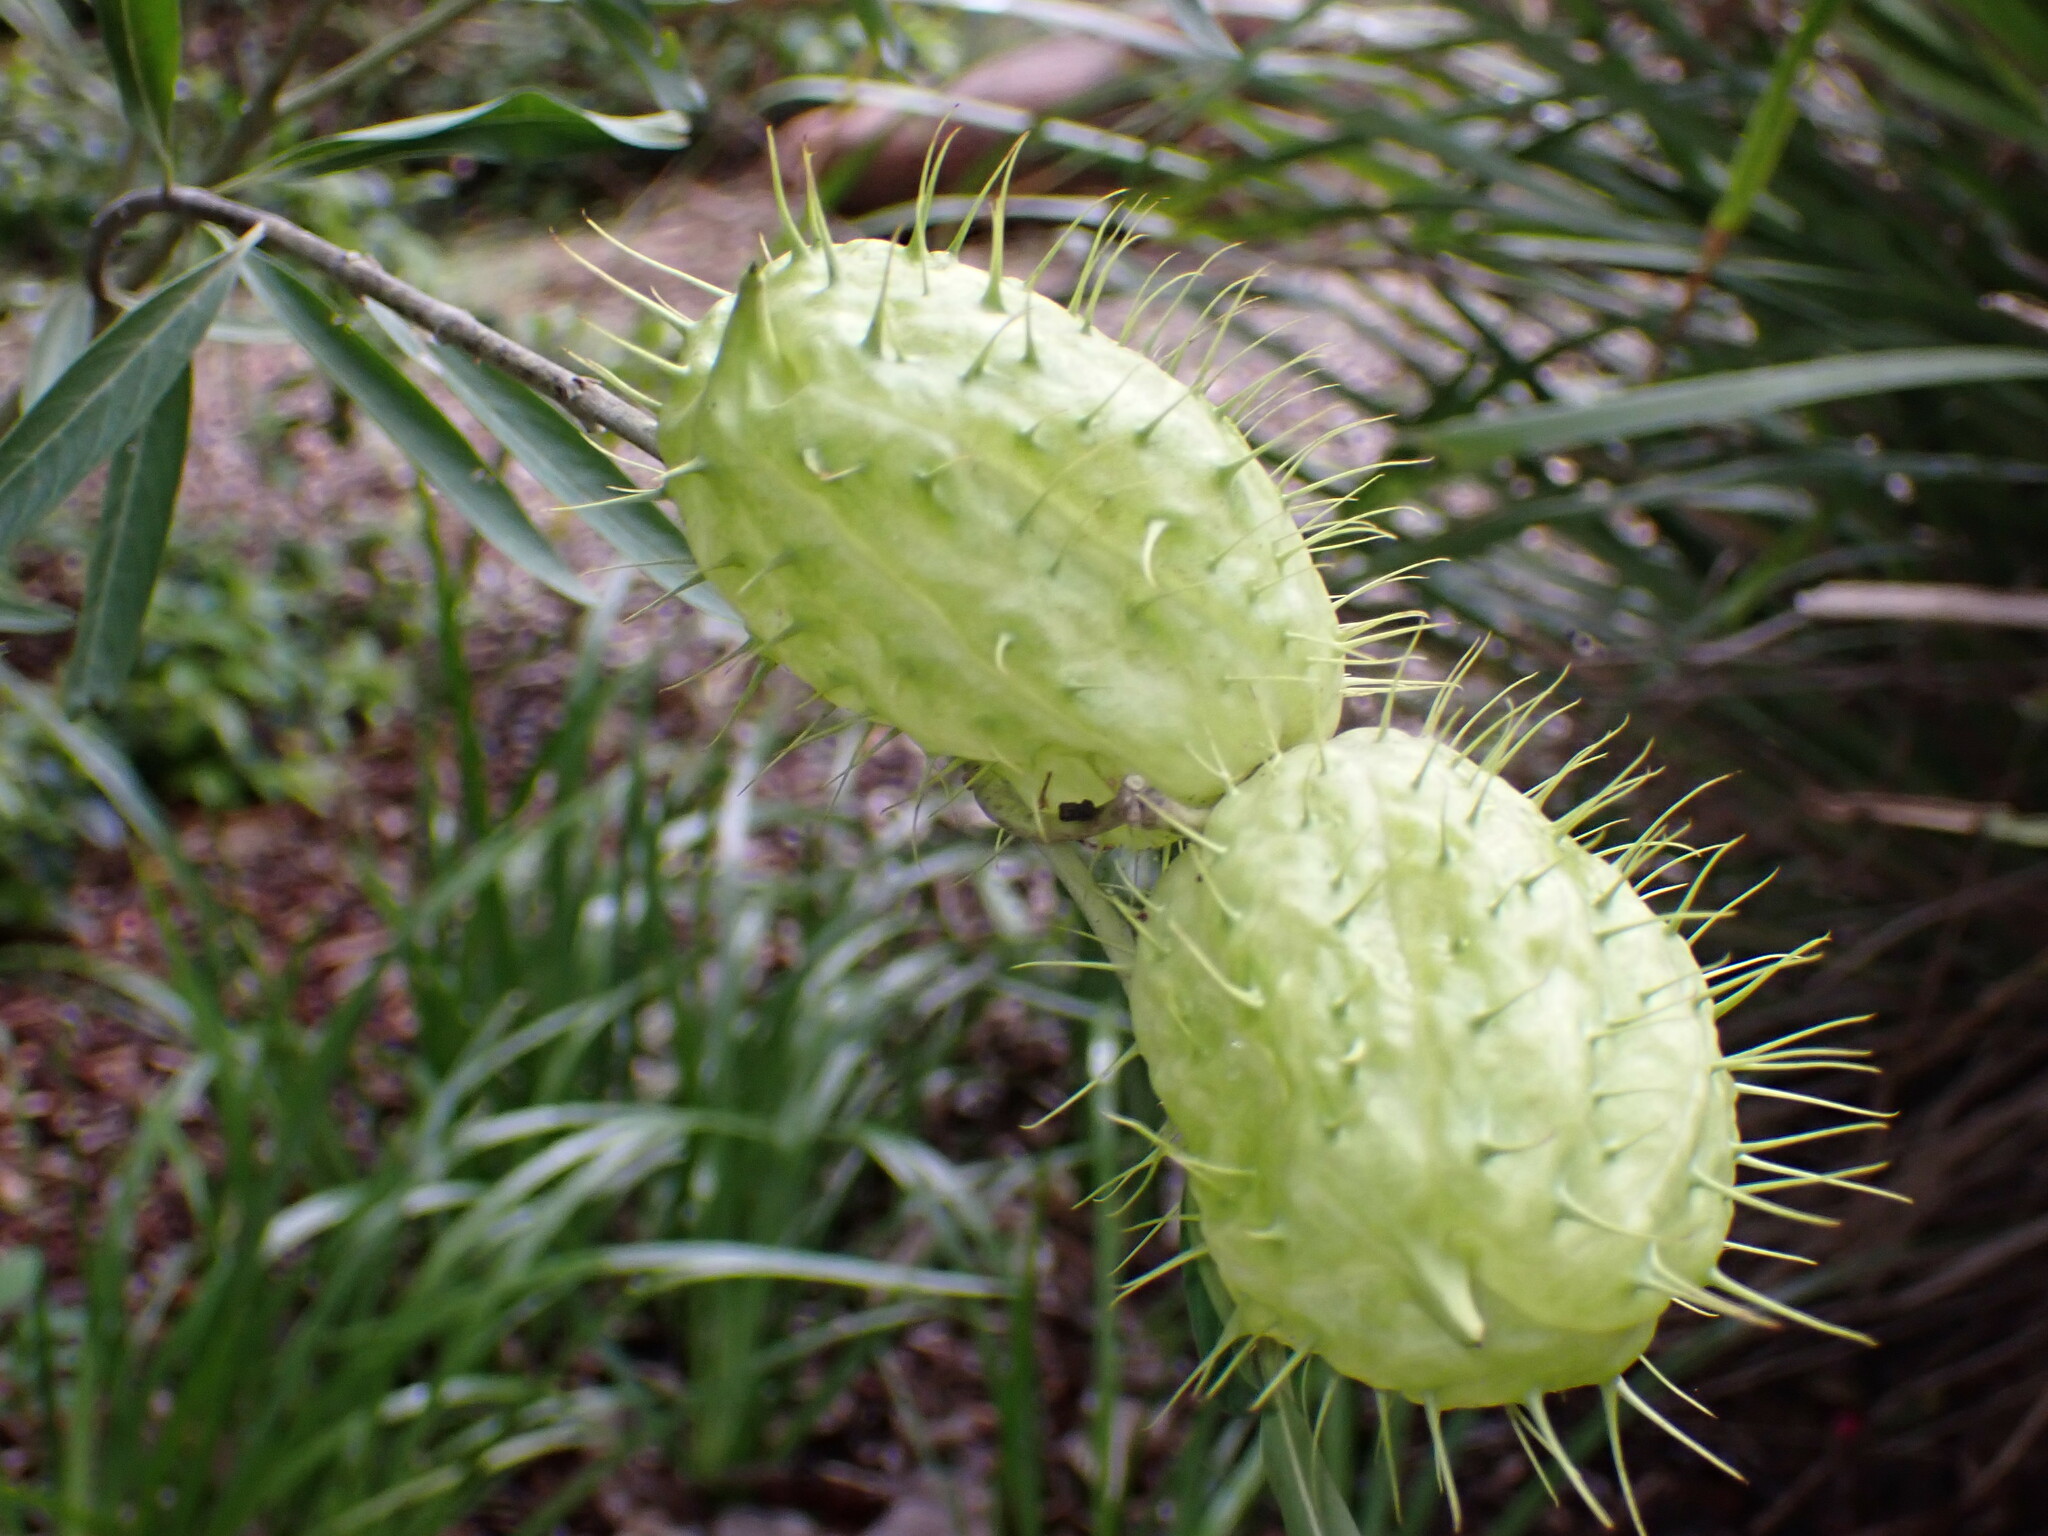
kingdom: Plantae
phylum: Tracheophyta
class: Magnoliopsida
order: Gentianales
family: Apocynaceae
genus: Gomphocarpus
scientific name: Gomphocarpus physocarpus
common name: Balloon cotton bush
